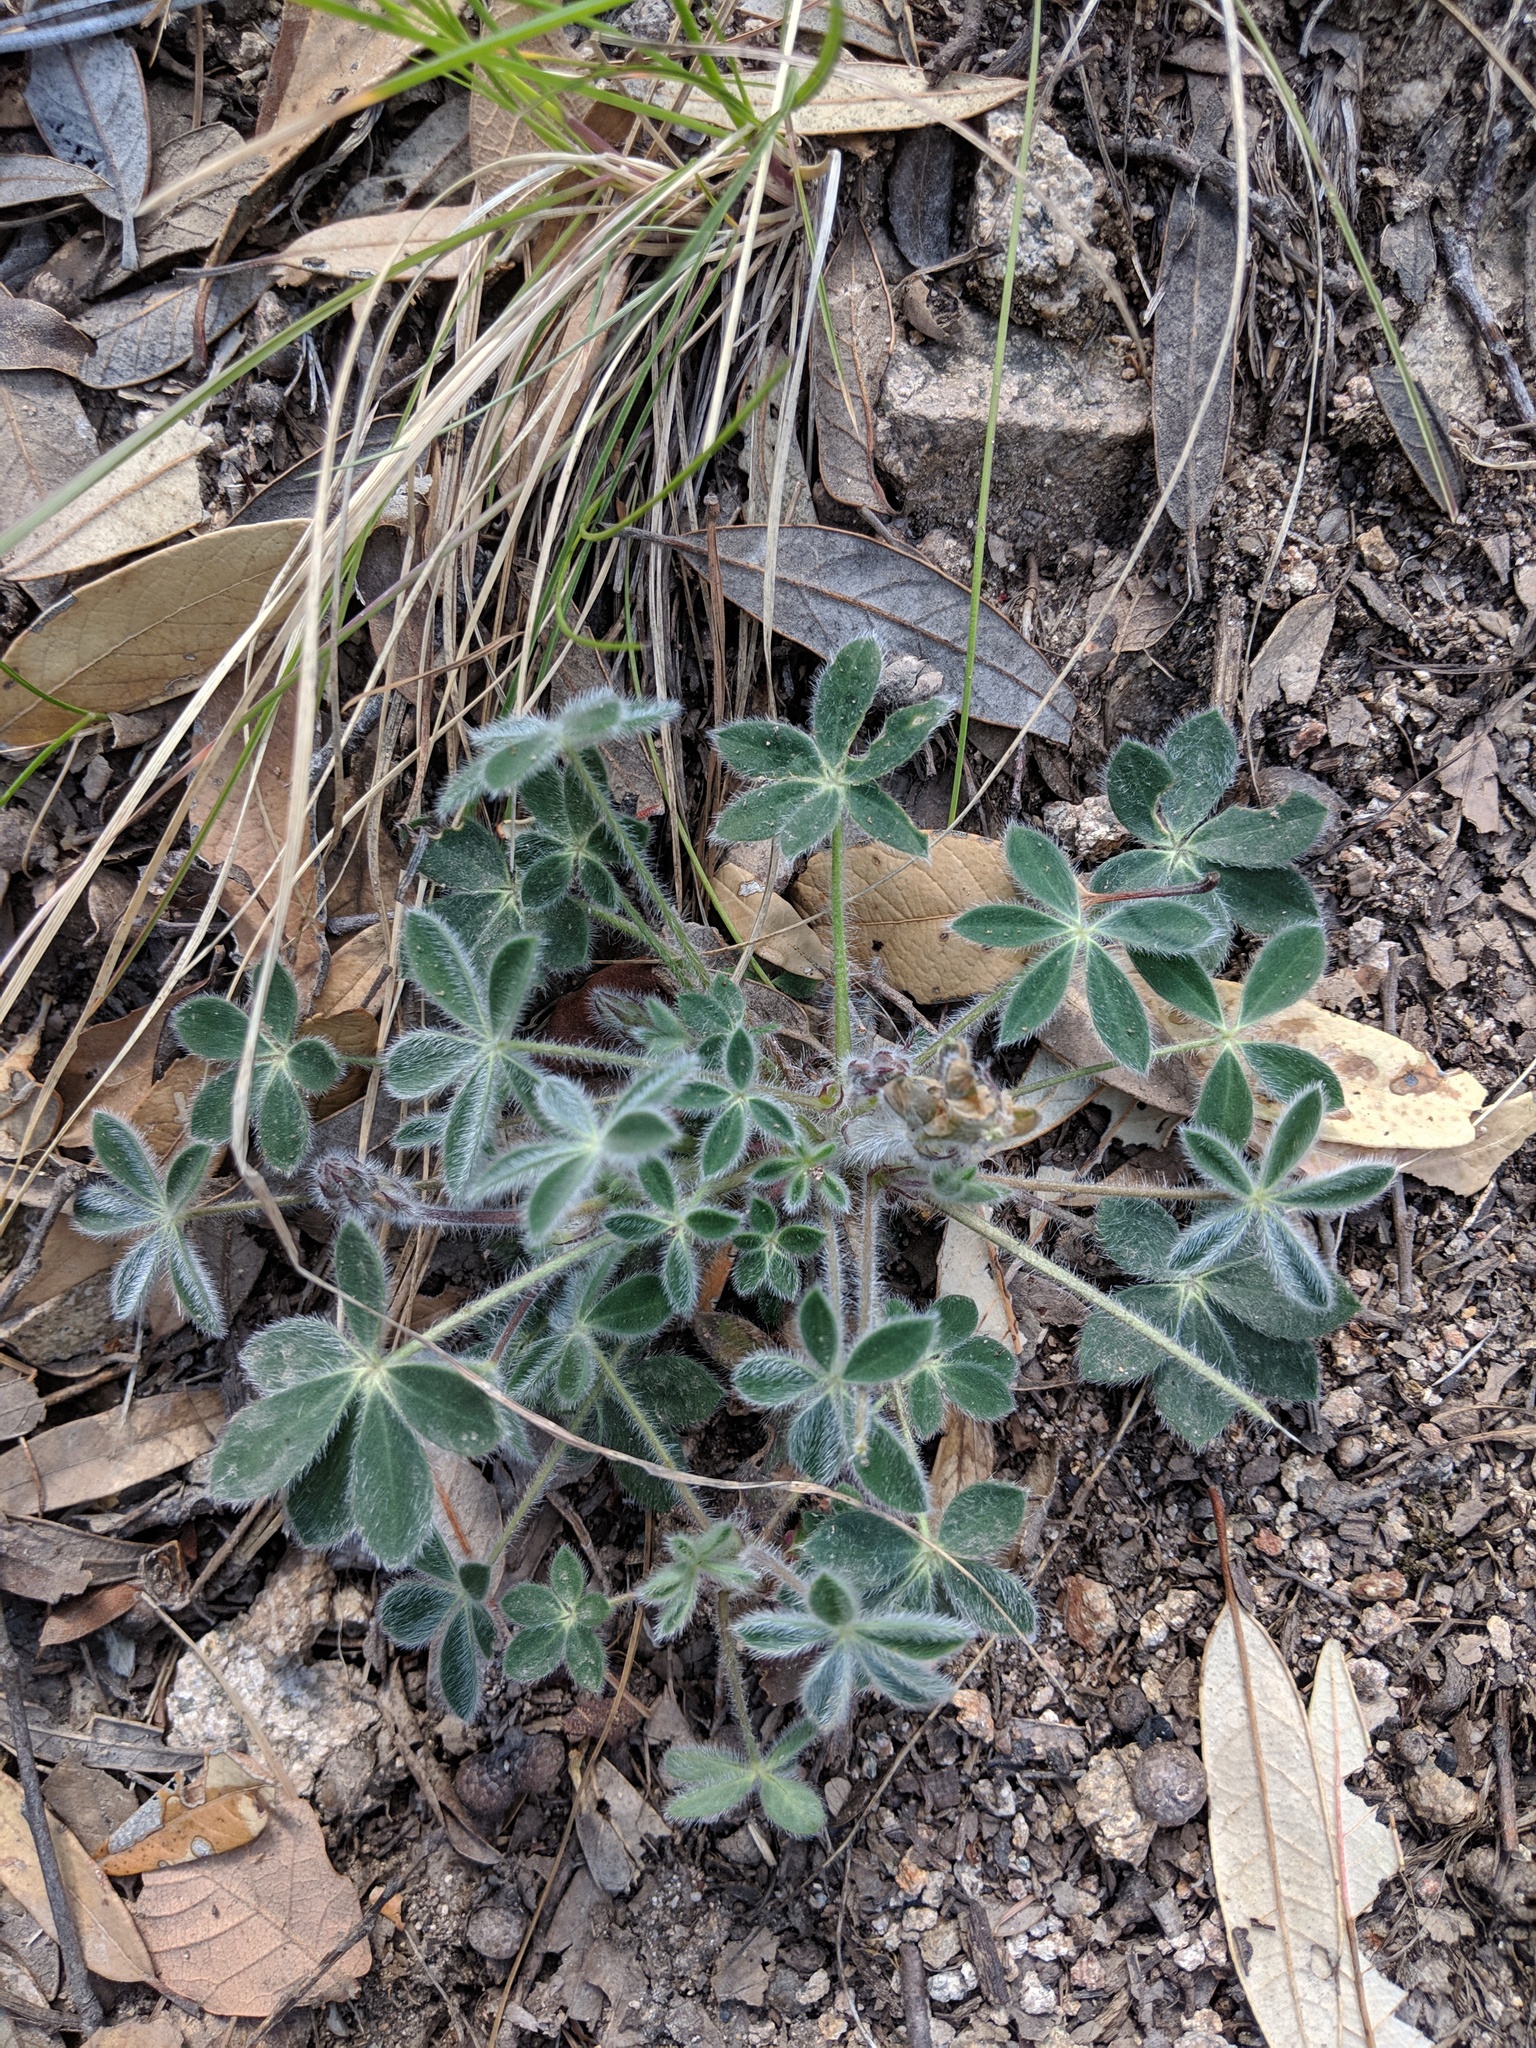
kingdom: Plantae
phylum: Tracheophyta
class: Magnoliopsida
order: Fabales
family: Fabaceae
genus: Lupinus
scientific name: Lupinus huachucanus
